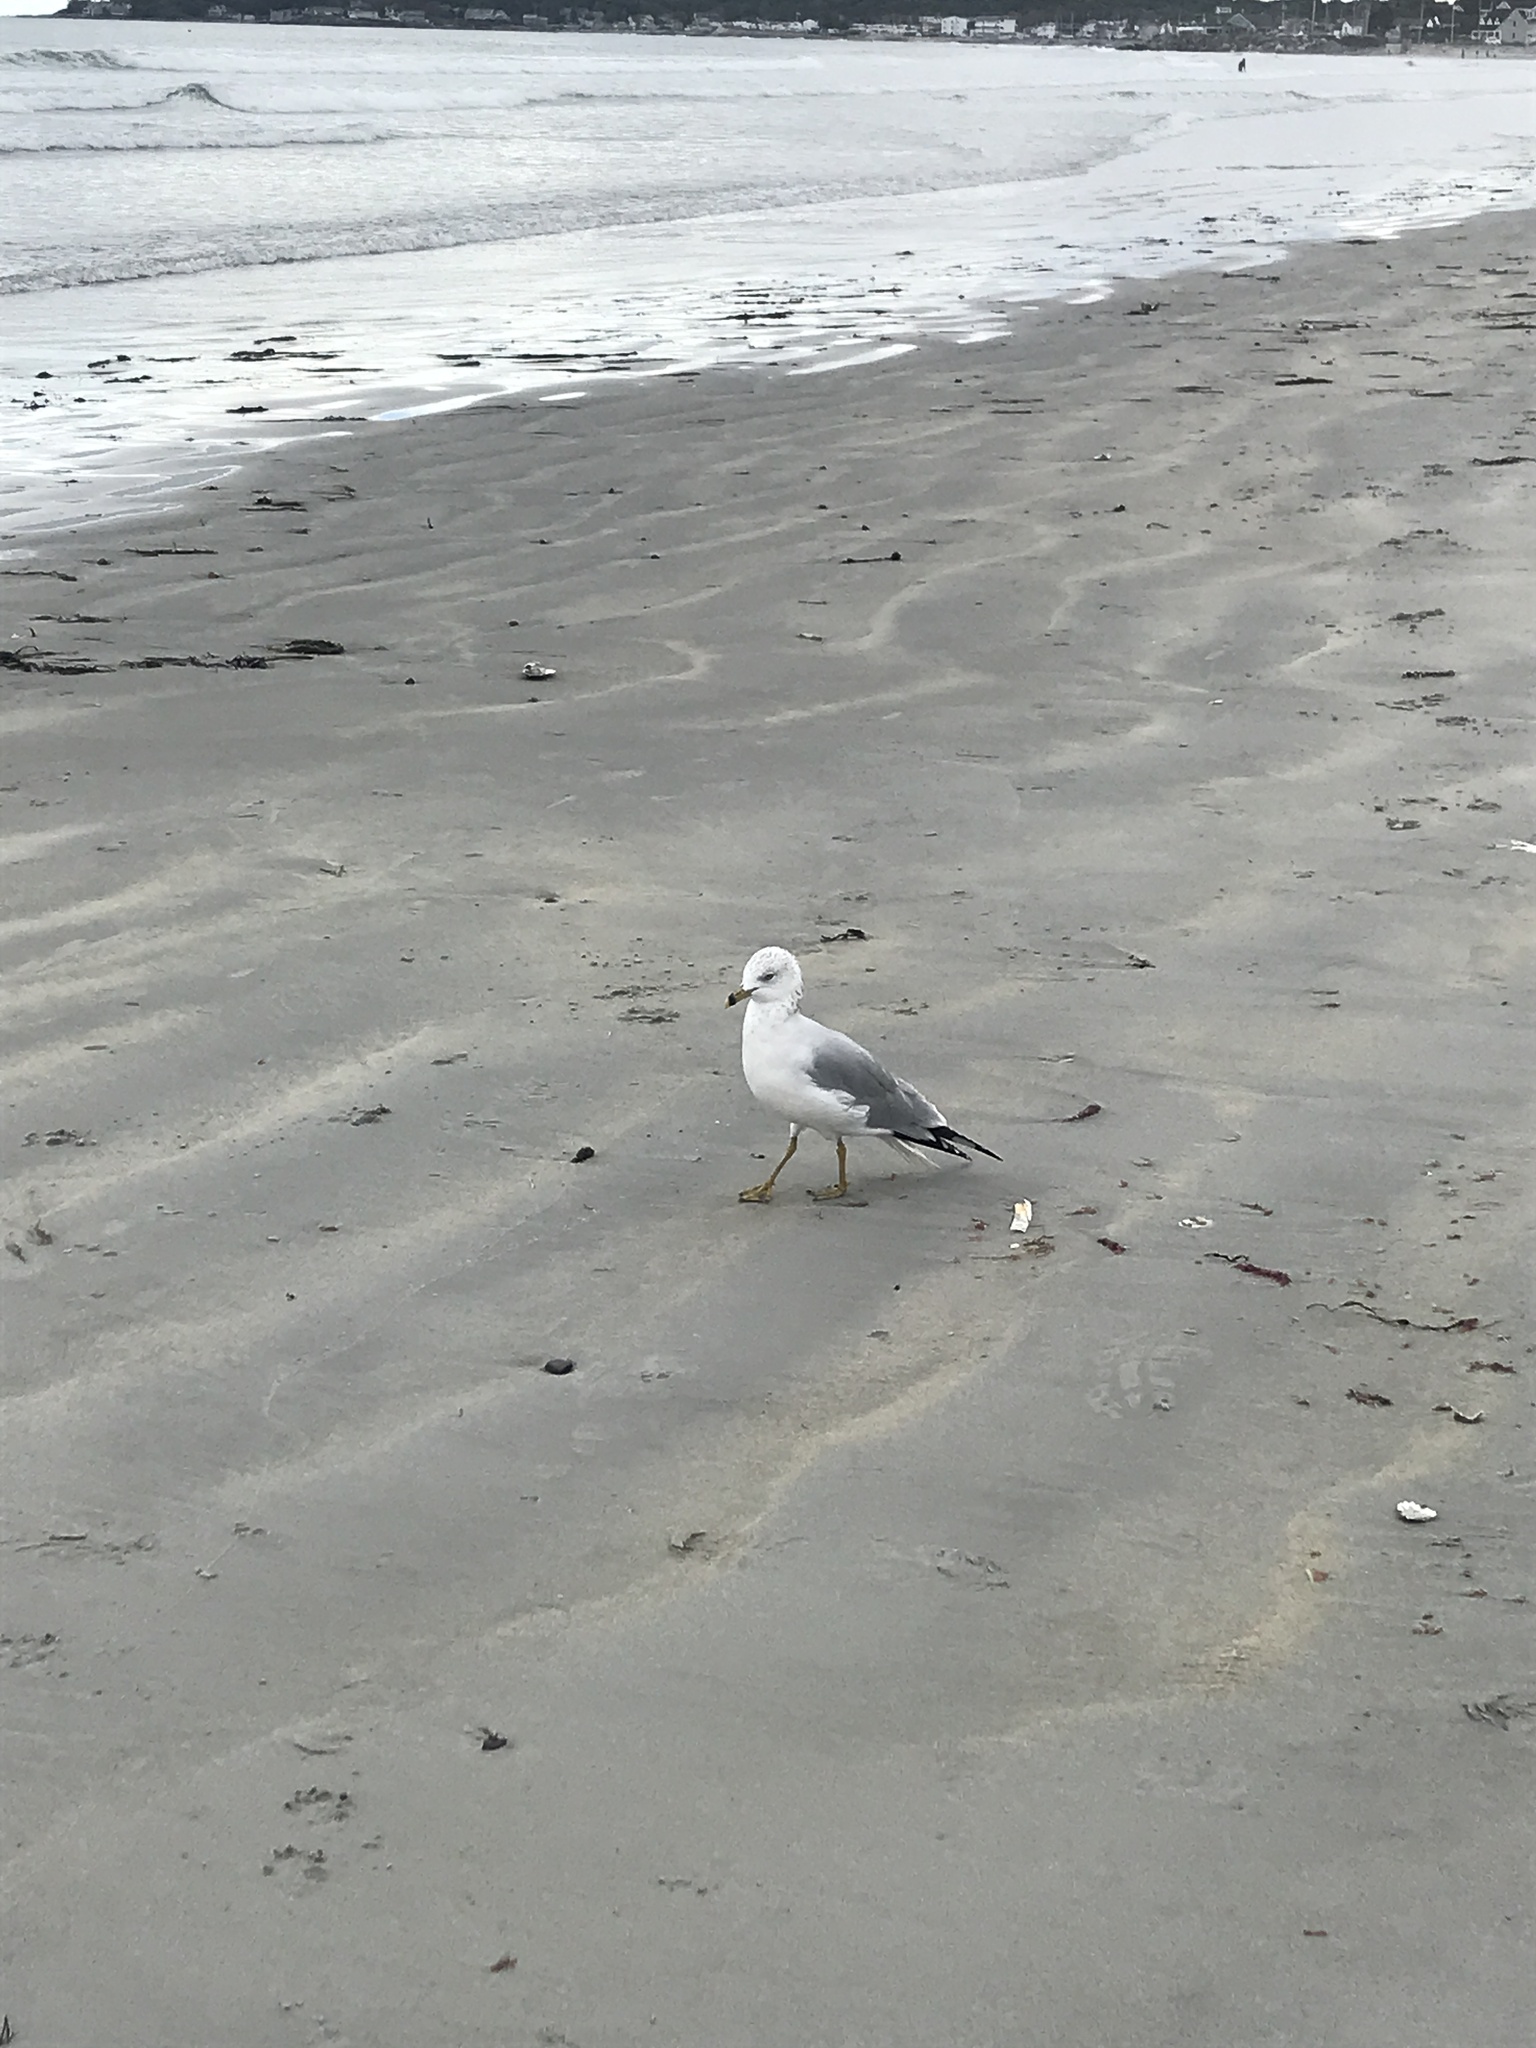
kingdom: Animalia
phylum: Chordata
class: Aves
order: Charadriiformes
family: Laridae
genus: Larus
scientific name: Larus delawarensis
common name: Ring-billed gull
